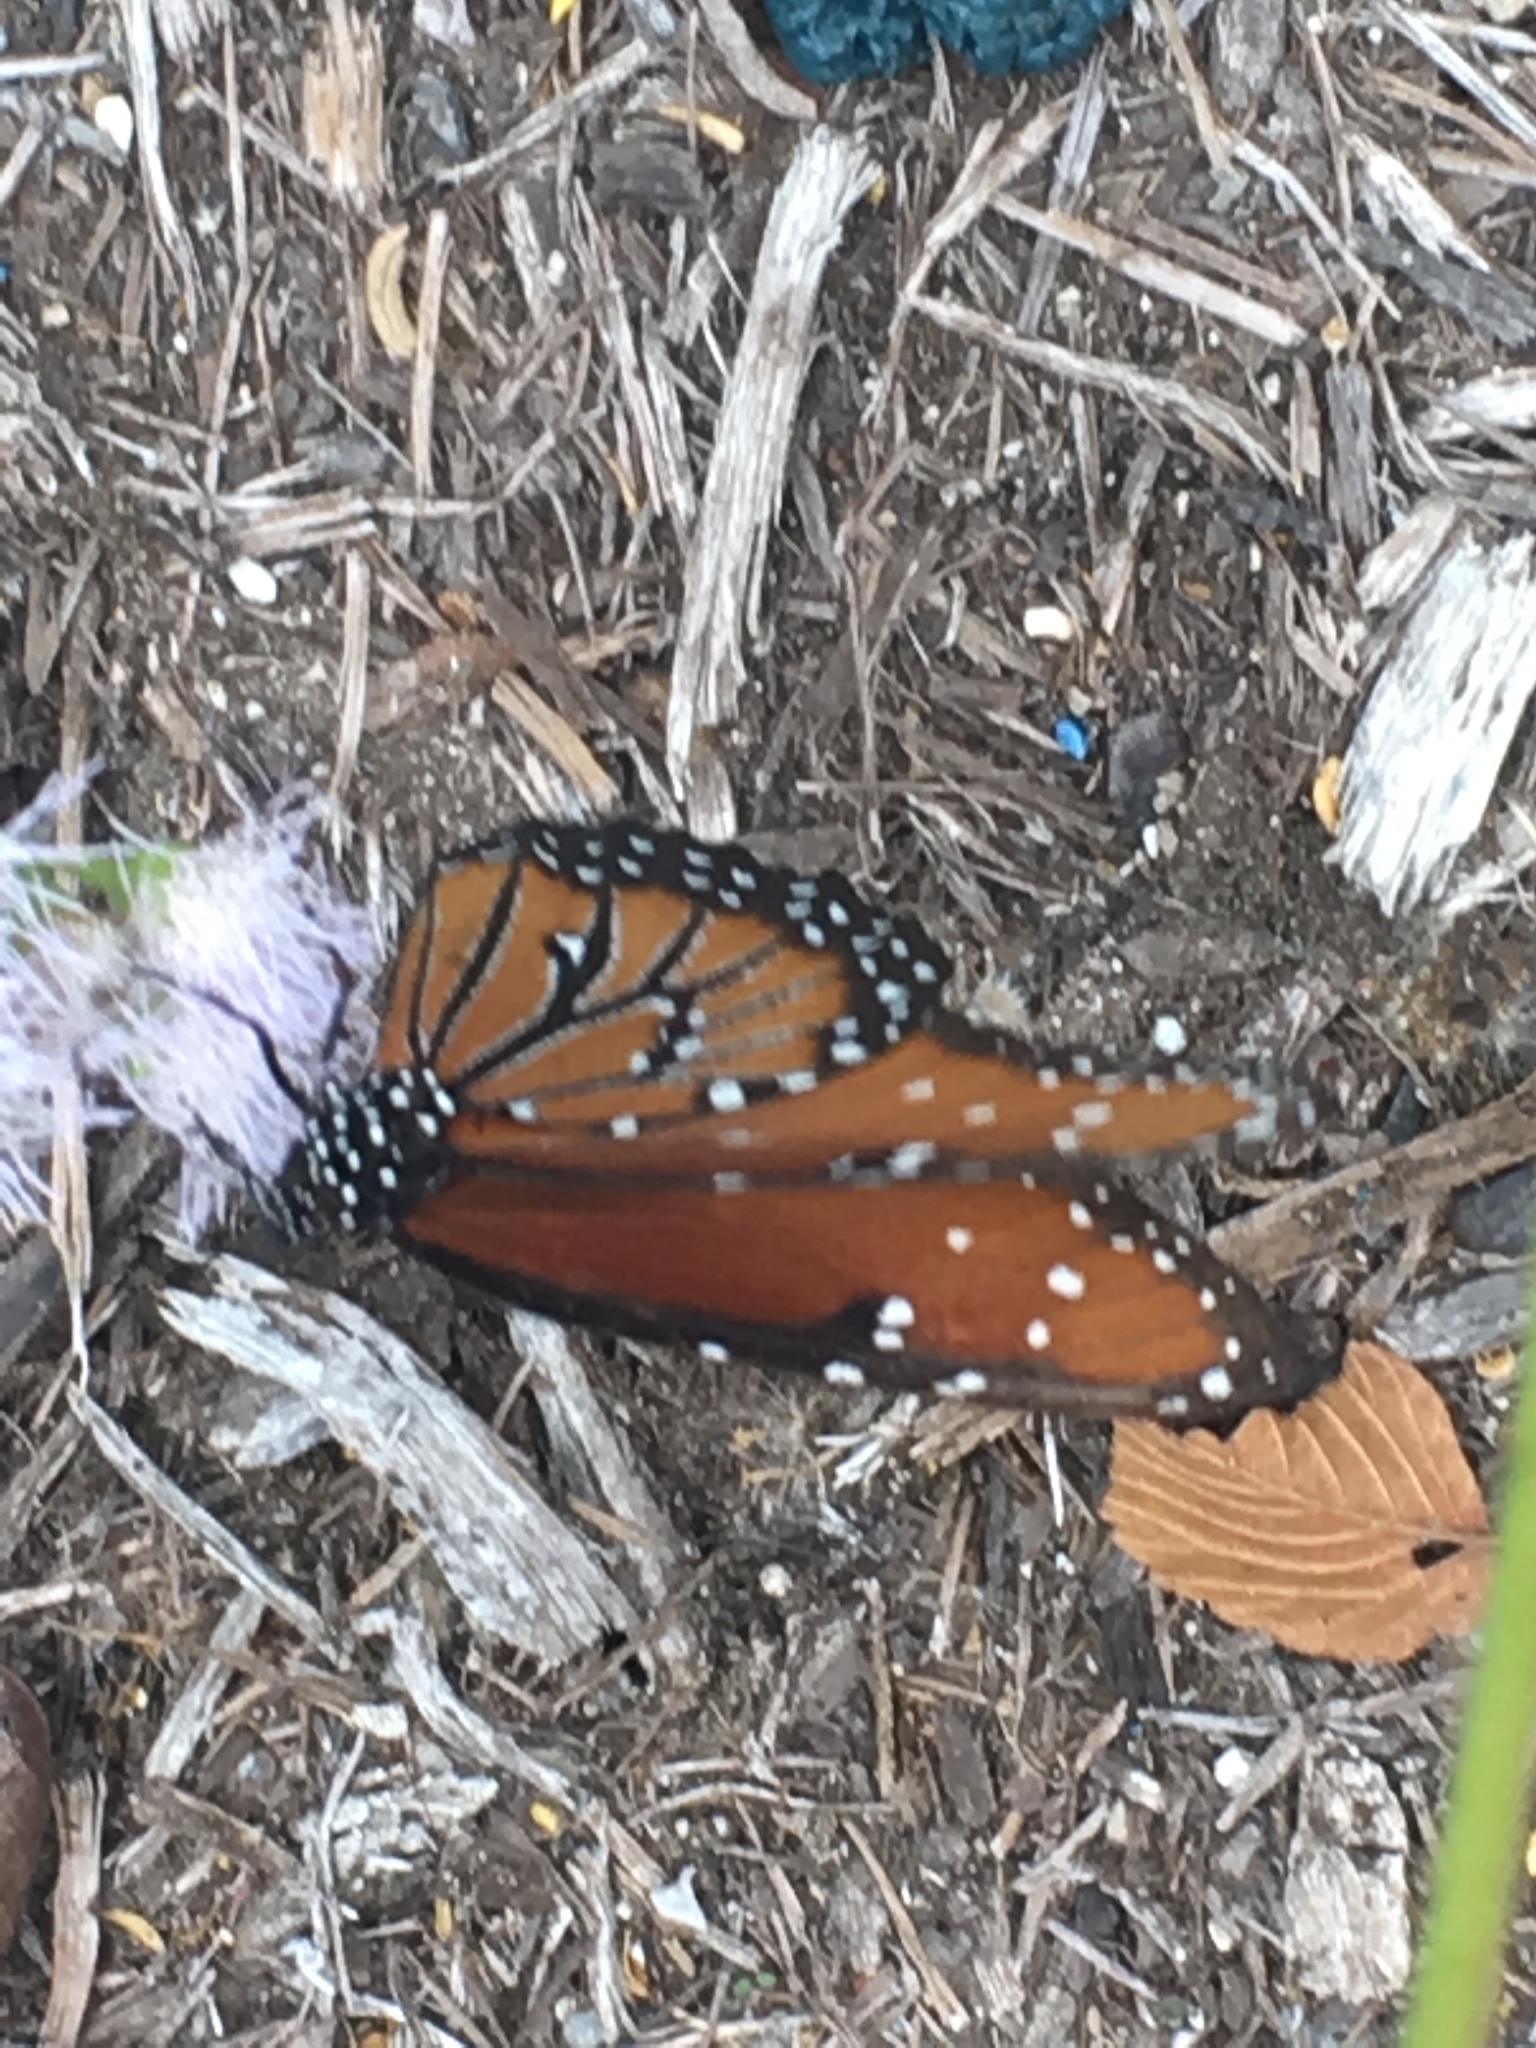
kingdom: Animalia
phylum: Arthropoda
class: Insecta
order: Lepidoptera
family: Nymphalidae
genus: Danaus
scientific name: Danaus gilippus
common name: Queen
